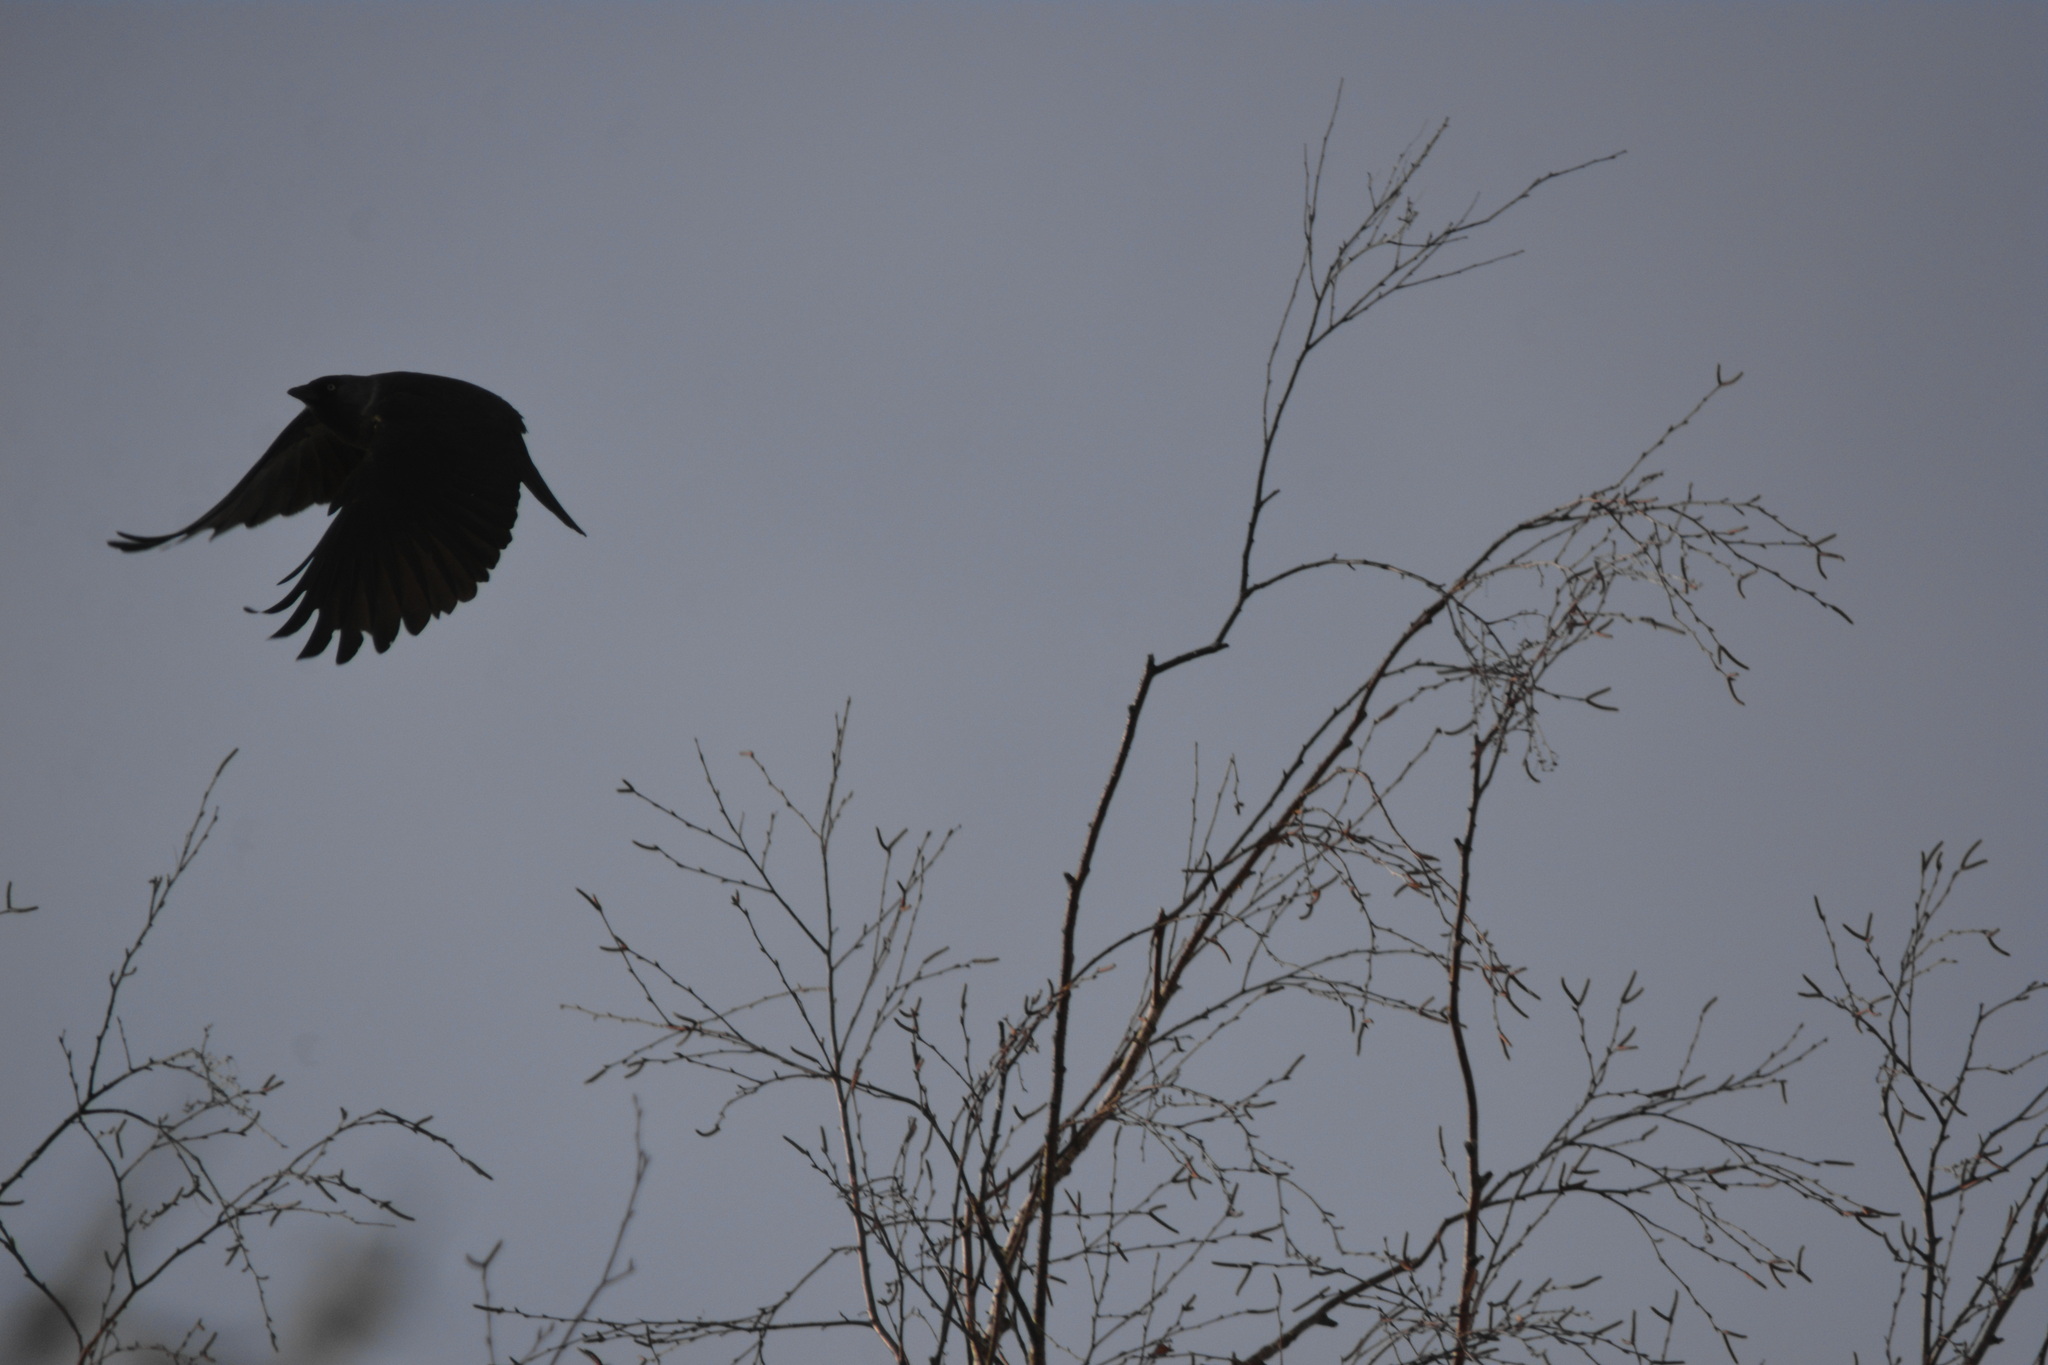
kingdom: Animalia
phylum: Chordata
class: Aves
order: Passeriformes
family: Corvidae
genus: Coloeus
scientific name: Coloeus monedula
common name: Western jackdaw
